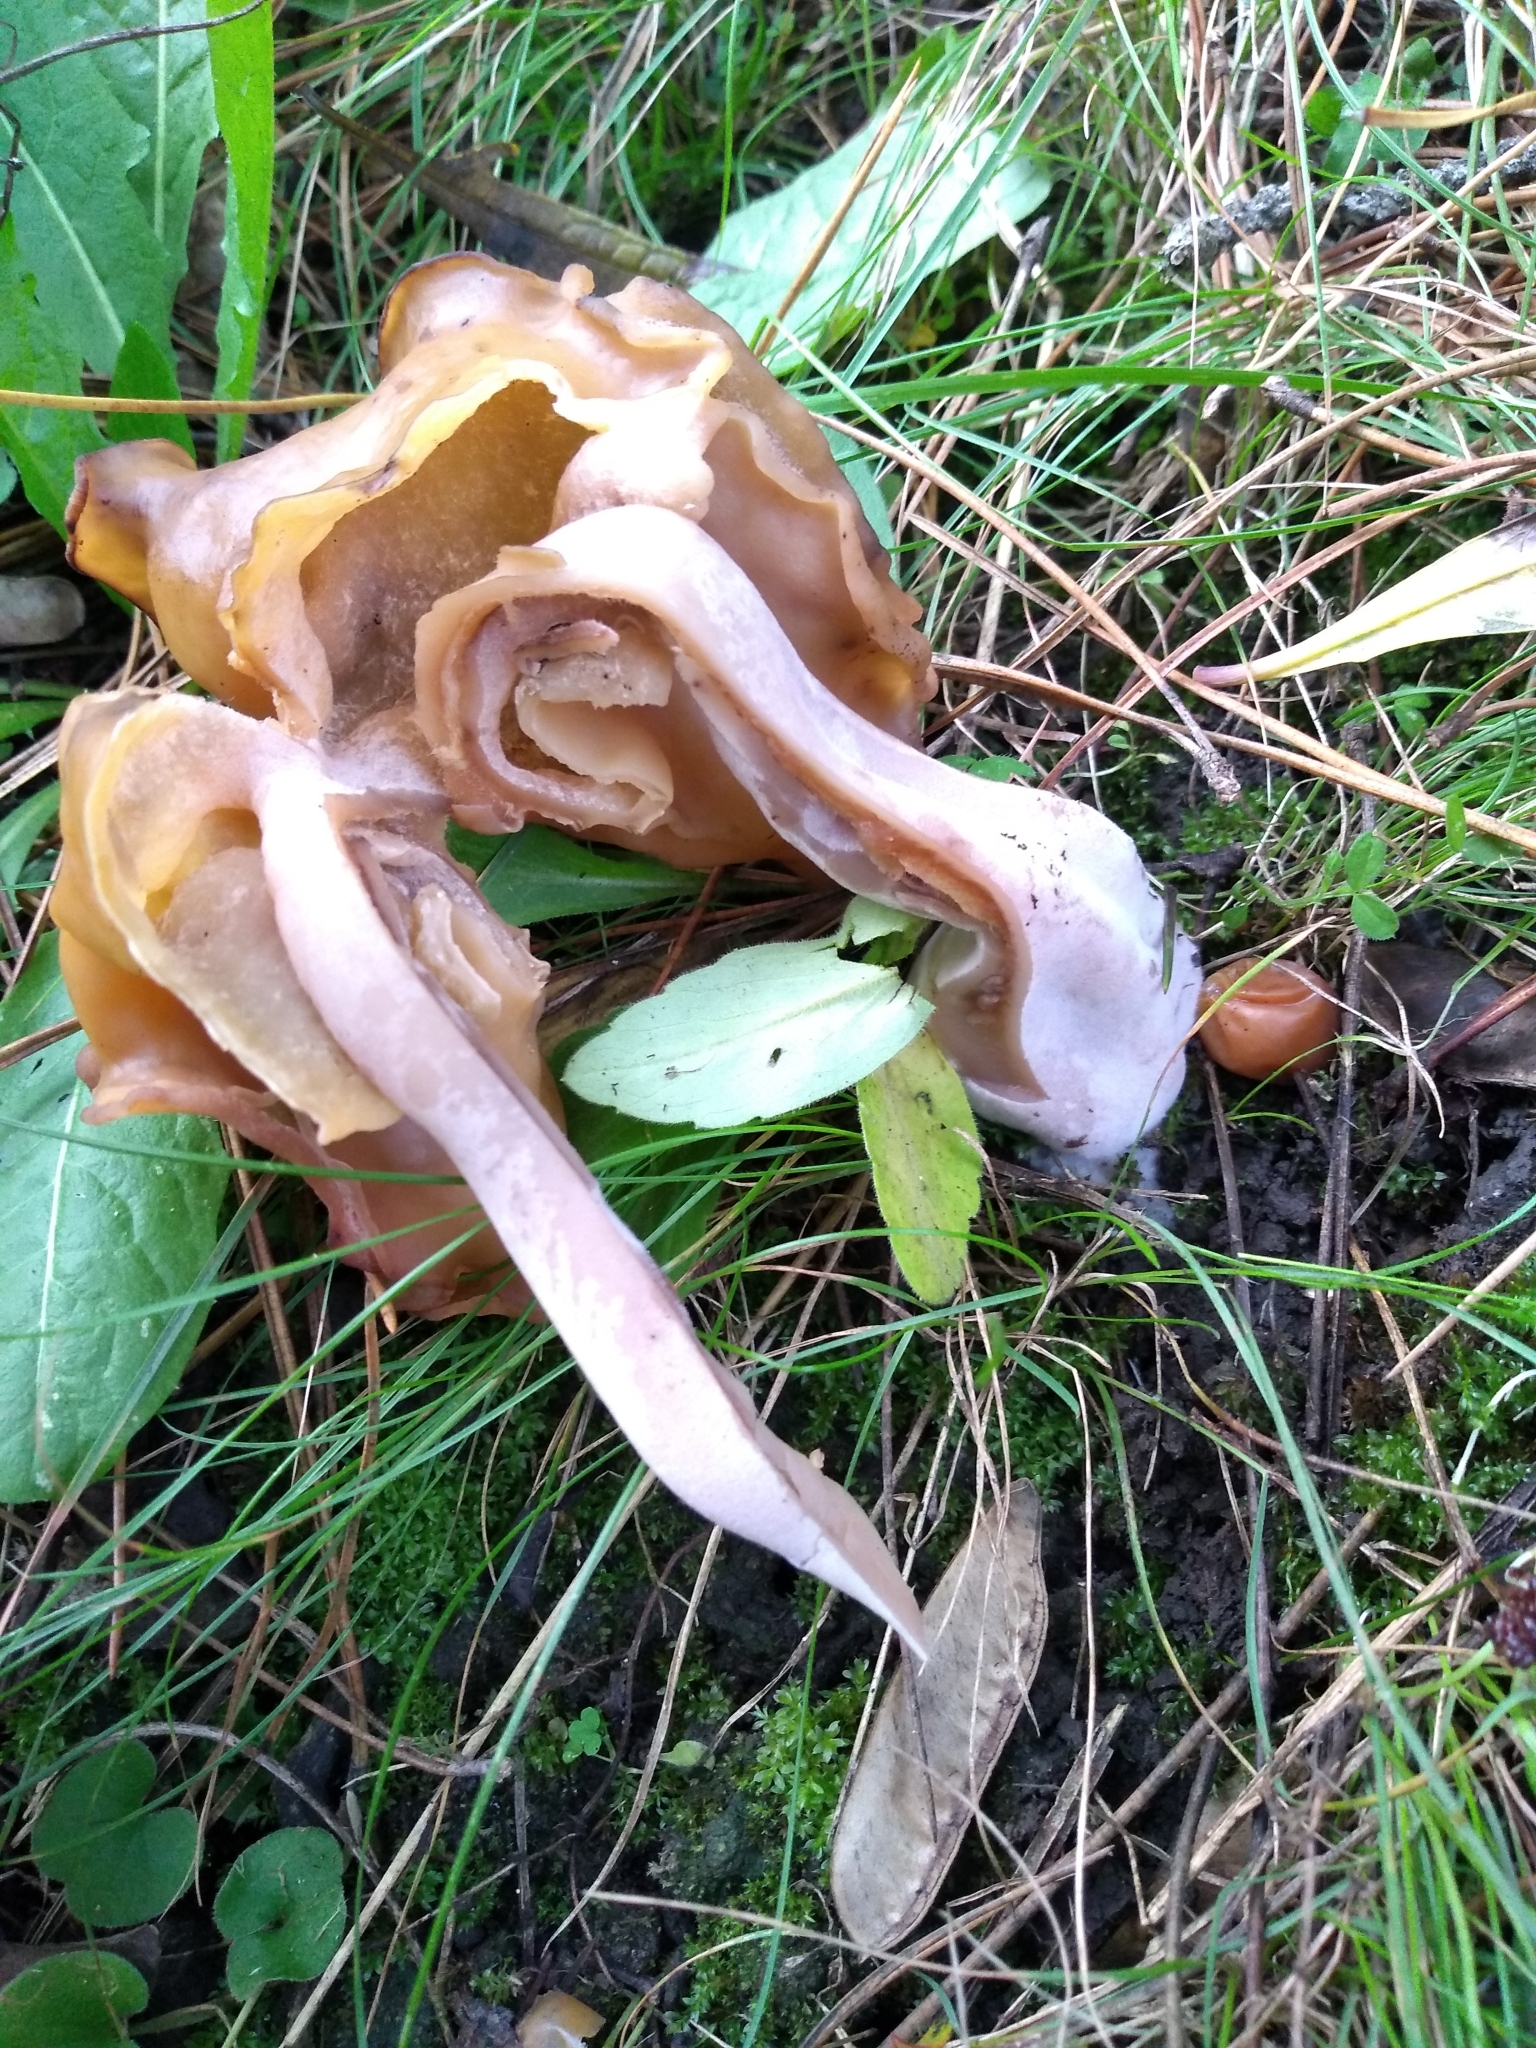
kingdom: Fungi
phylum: Ascomycota
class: Pezizomycetes
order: Pezizales
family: Discinaceae
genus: Gyromitra
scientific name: Gyromitra infula
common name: Pouched false morel
